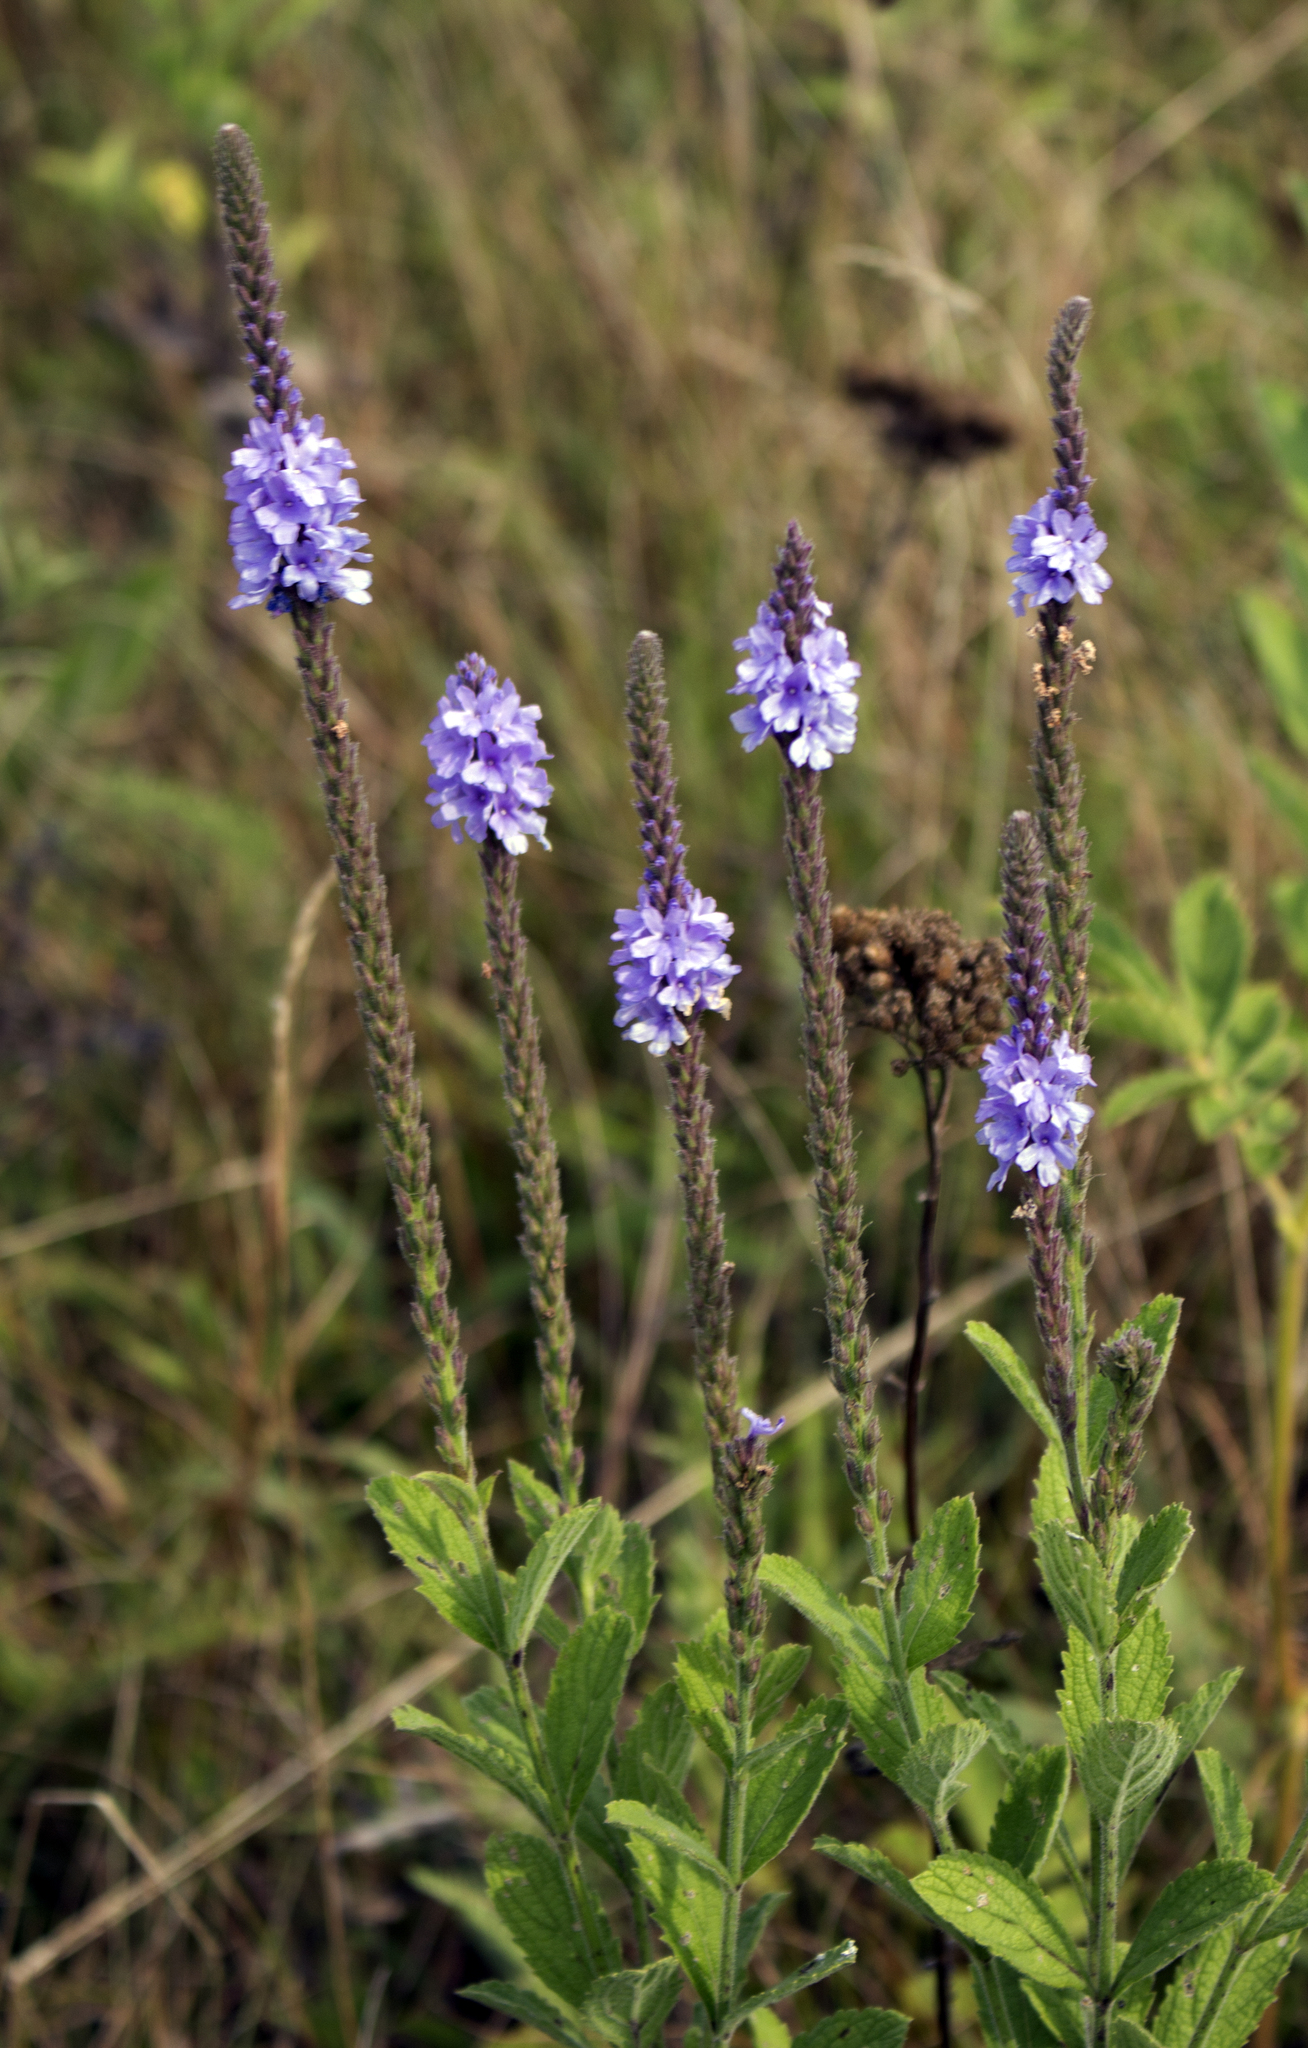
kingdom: Plantae
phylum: Tracheophyta
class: Magnoliopsida
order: Lamiales
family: Verbenaceae
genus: Verbena
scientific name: Verbena stricta
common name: Hoary vervain
